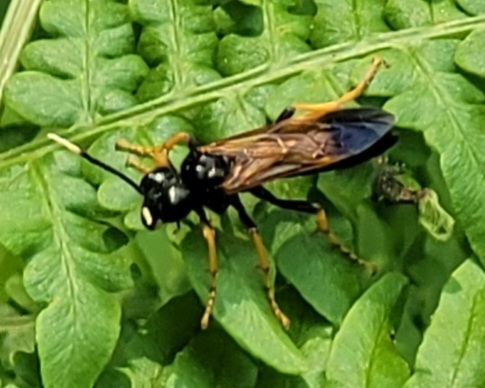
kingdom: Animalia
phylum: Arthropoda
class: Insecta
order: Hymenoptera
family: Tenthredinidae
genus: Tenthredo
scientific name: Tenthredo crassa
